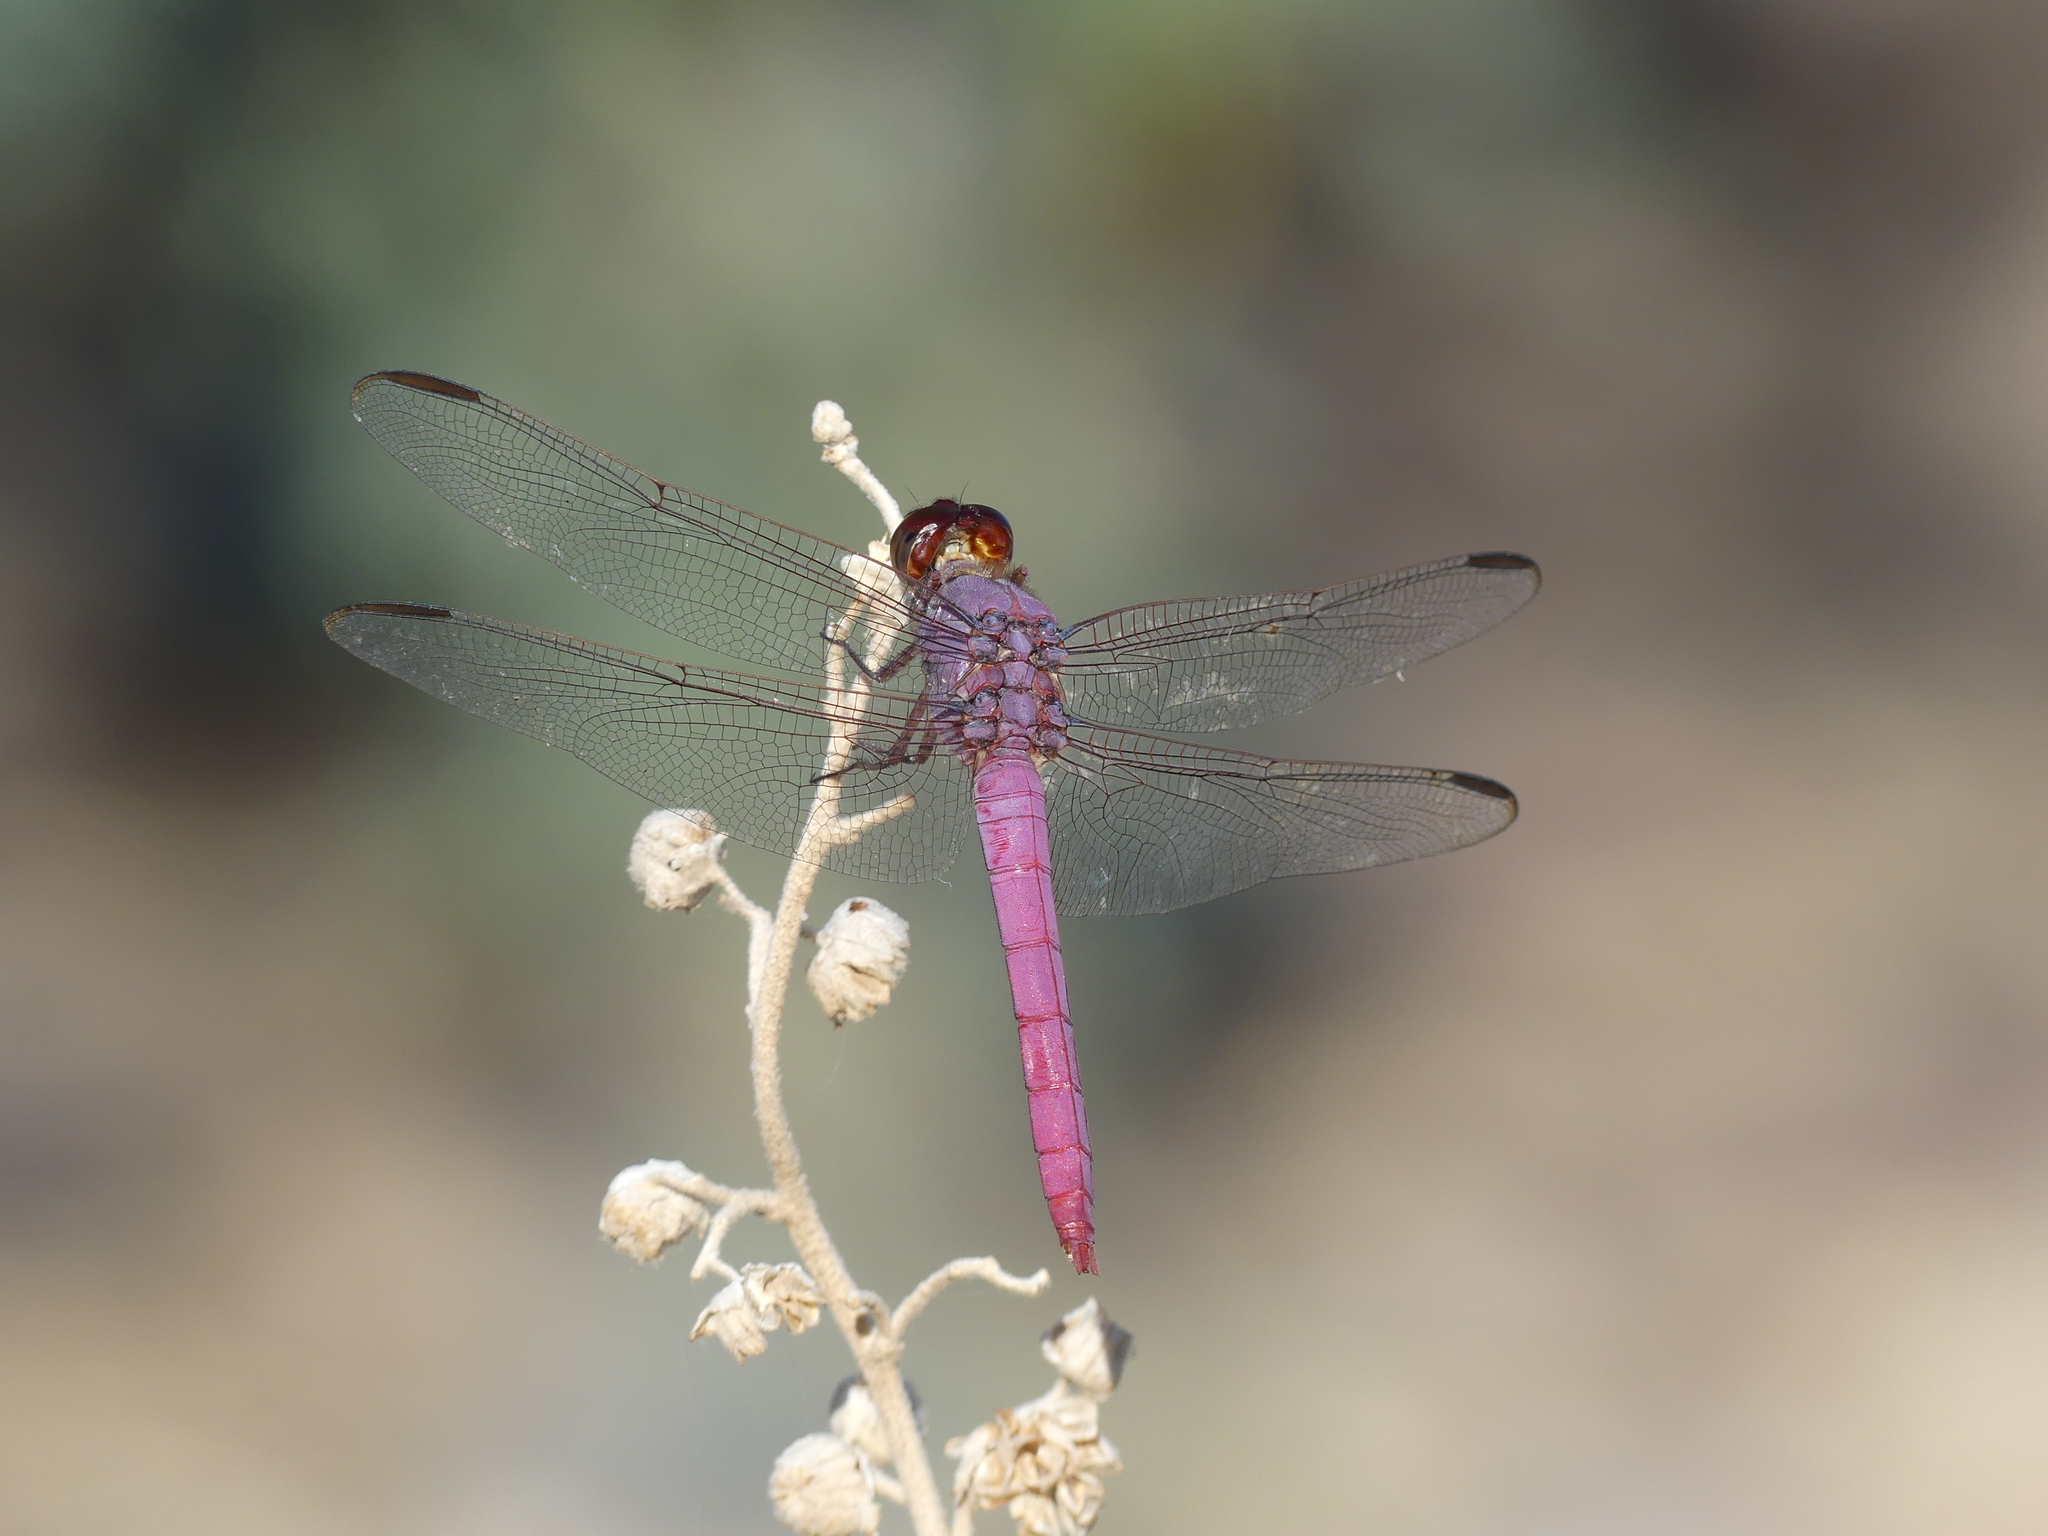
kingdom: Animalia
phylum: Arthropoda
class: Insecta
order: Odonata
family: Libellulidae
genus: Orthemis
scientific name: Orthemis ferruginea
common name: Roseate skimmer
